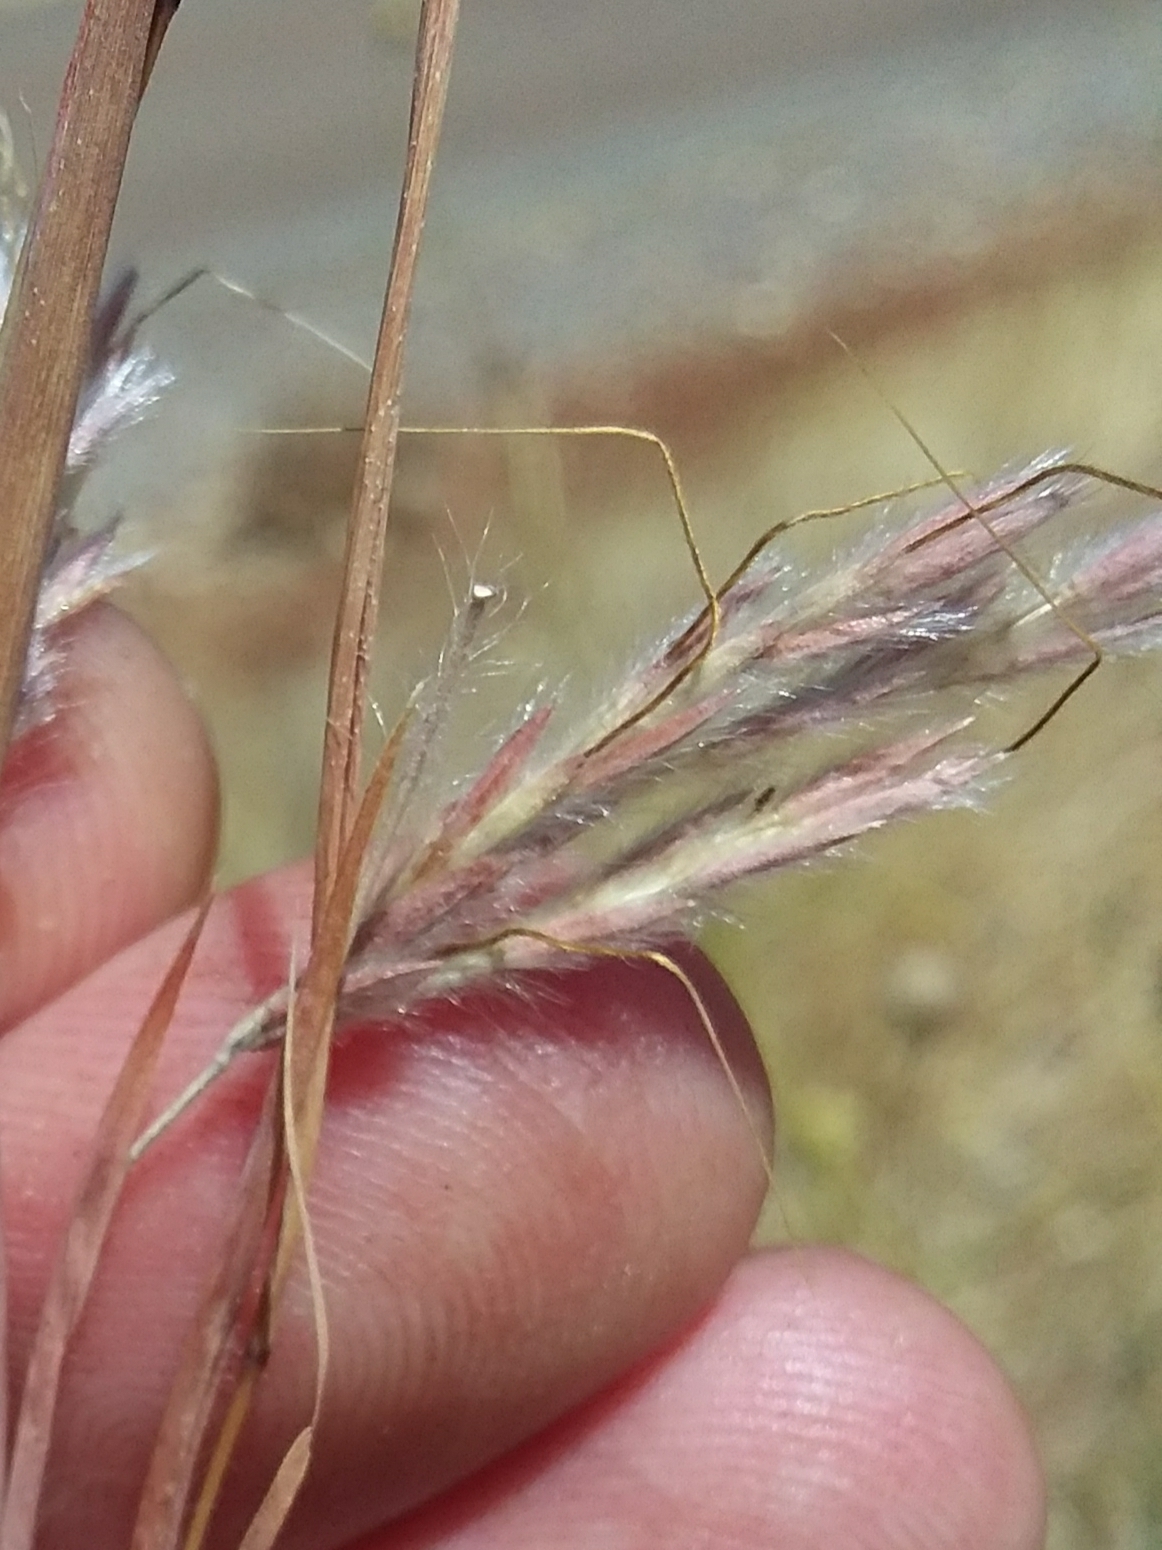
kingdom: Plantae
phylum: Tracheophyta
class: Liliopsida
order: Poales
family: Poaceae
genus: Hyparrhenia
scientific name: Hyparrhenia hirta
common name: Thatching grass
